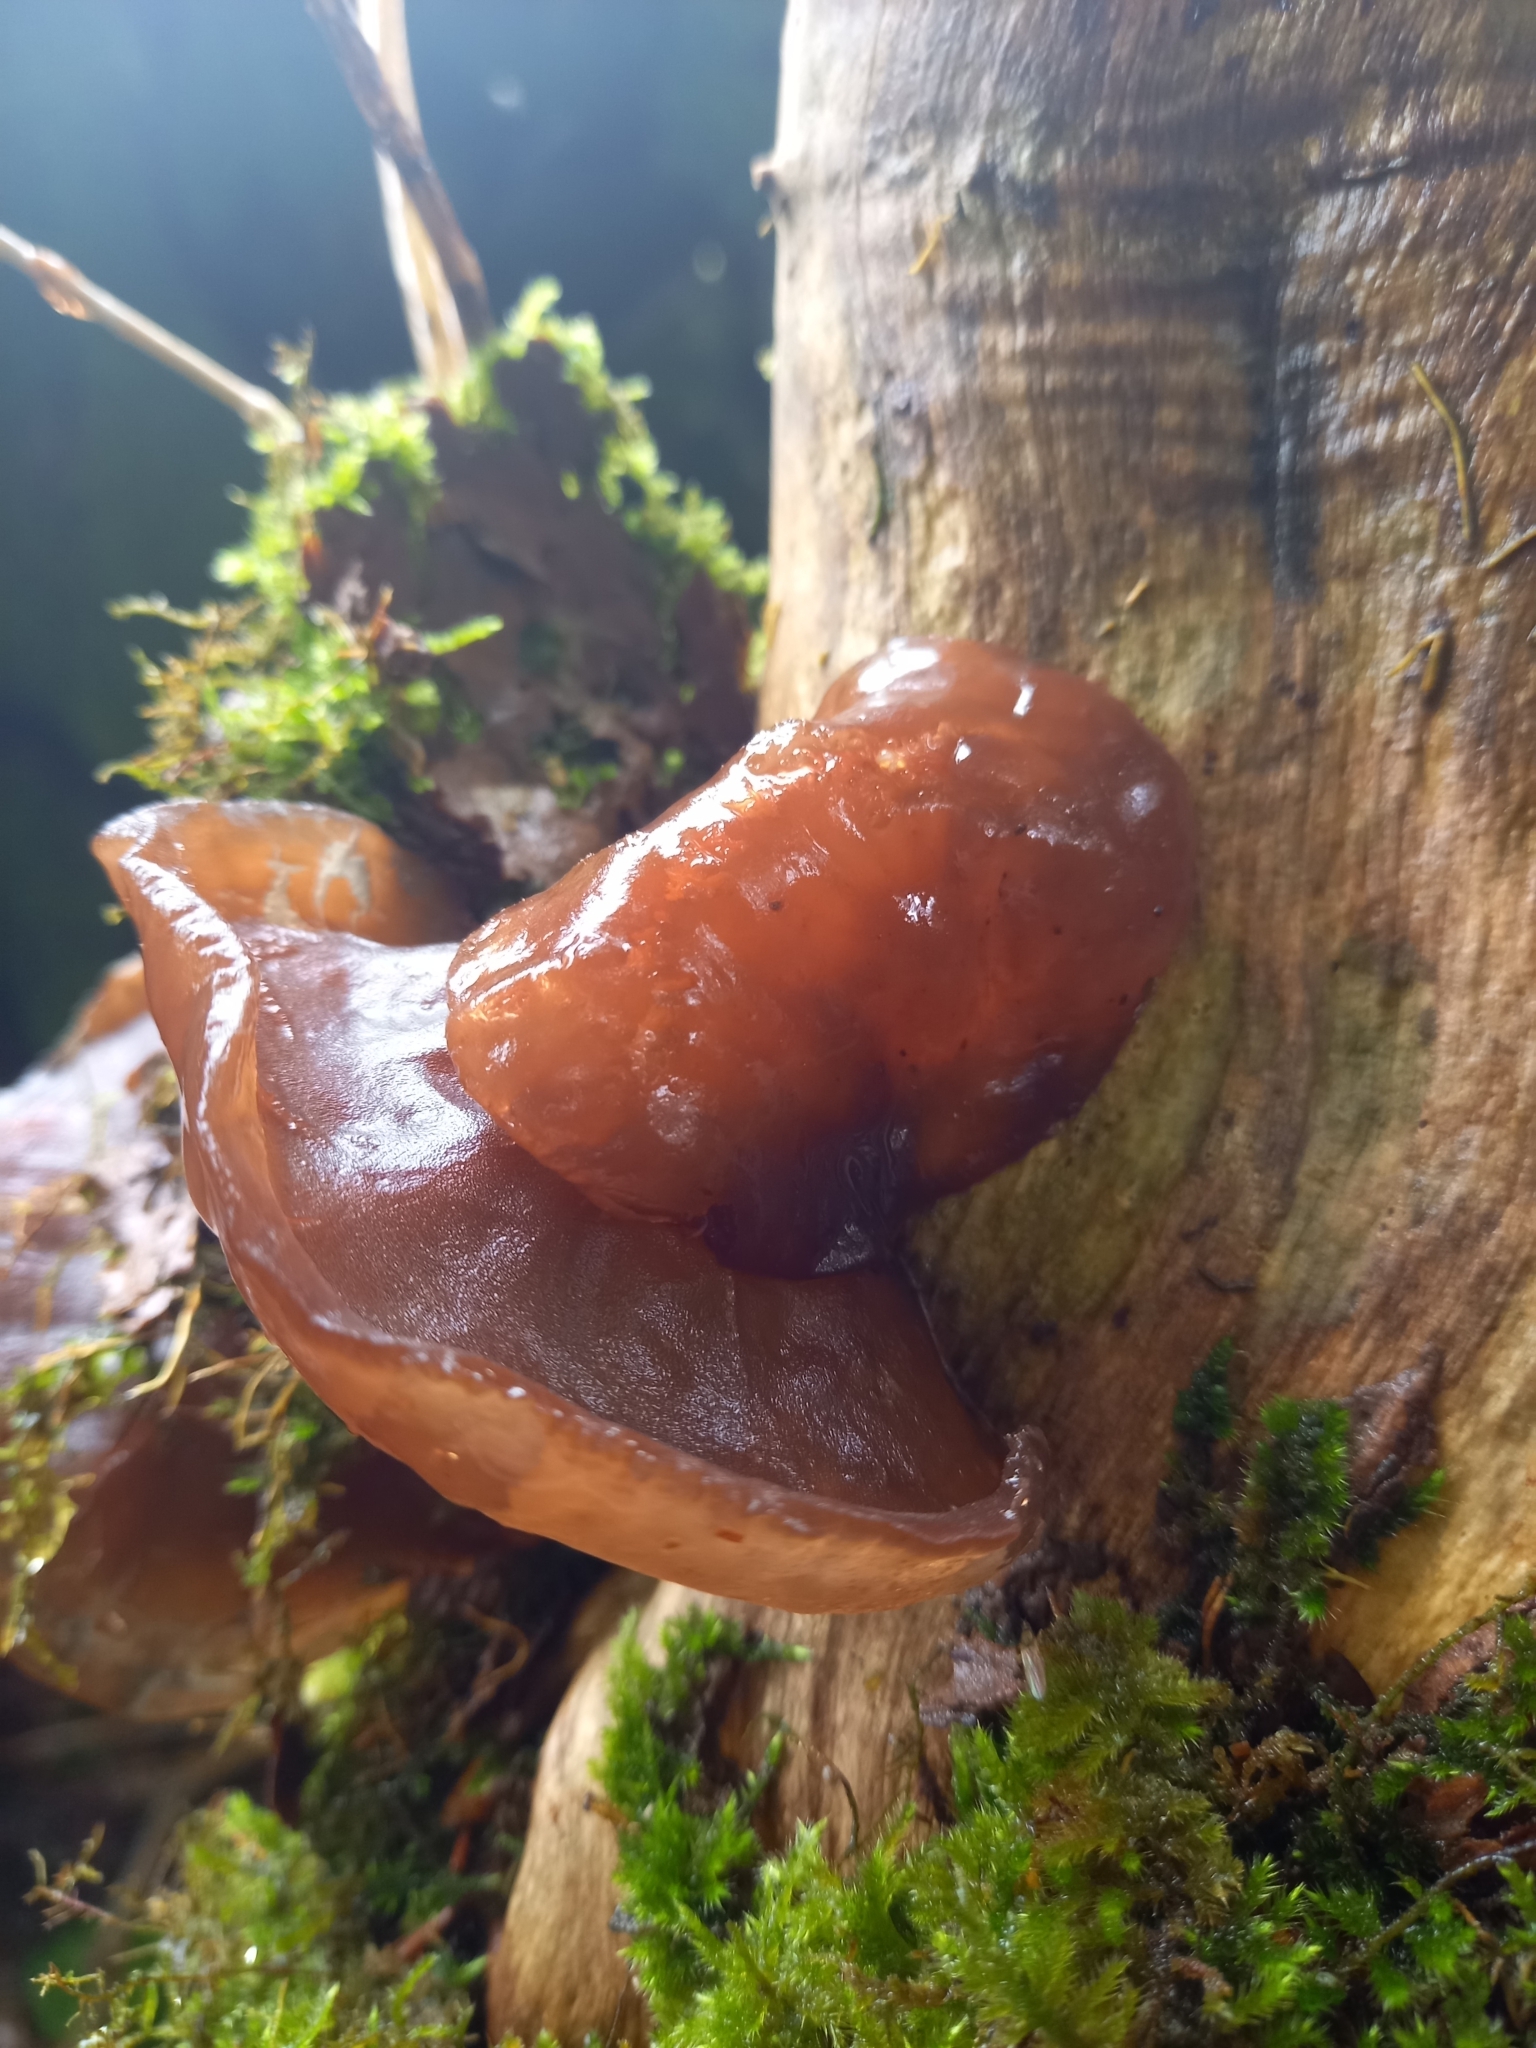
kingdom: Fungi
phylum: Basidiomycota
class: Agaricomycetes
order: Auriculariales
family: Auriculariaceae
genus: Auricularia
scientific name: Auricularia auricula-judae
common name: Jelly ear
